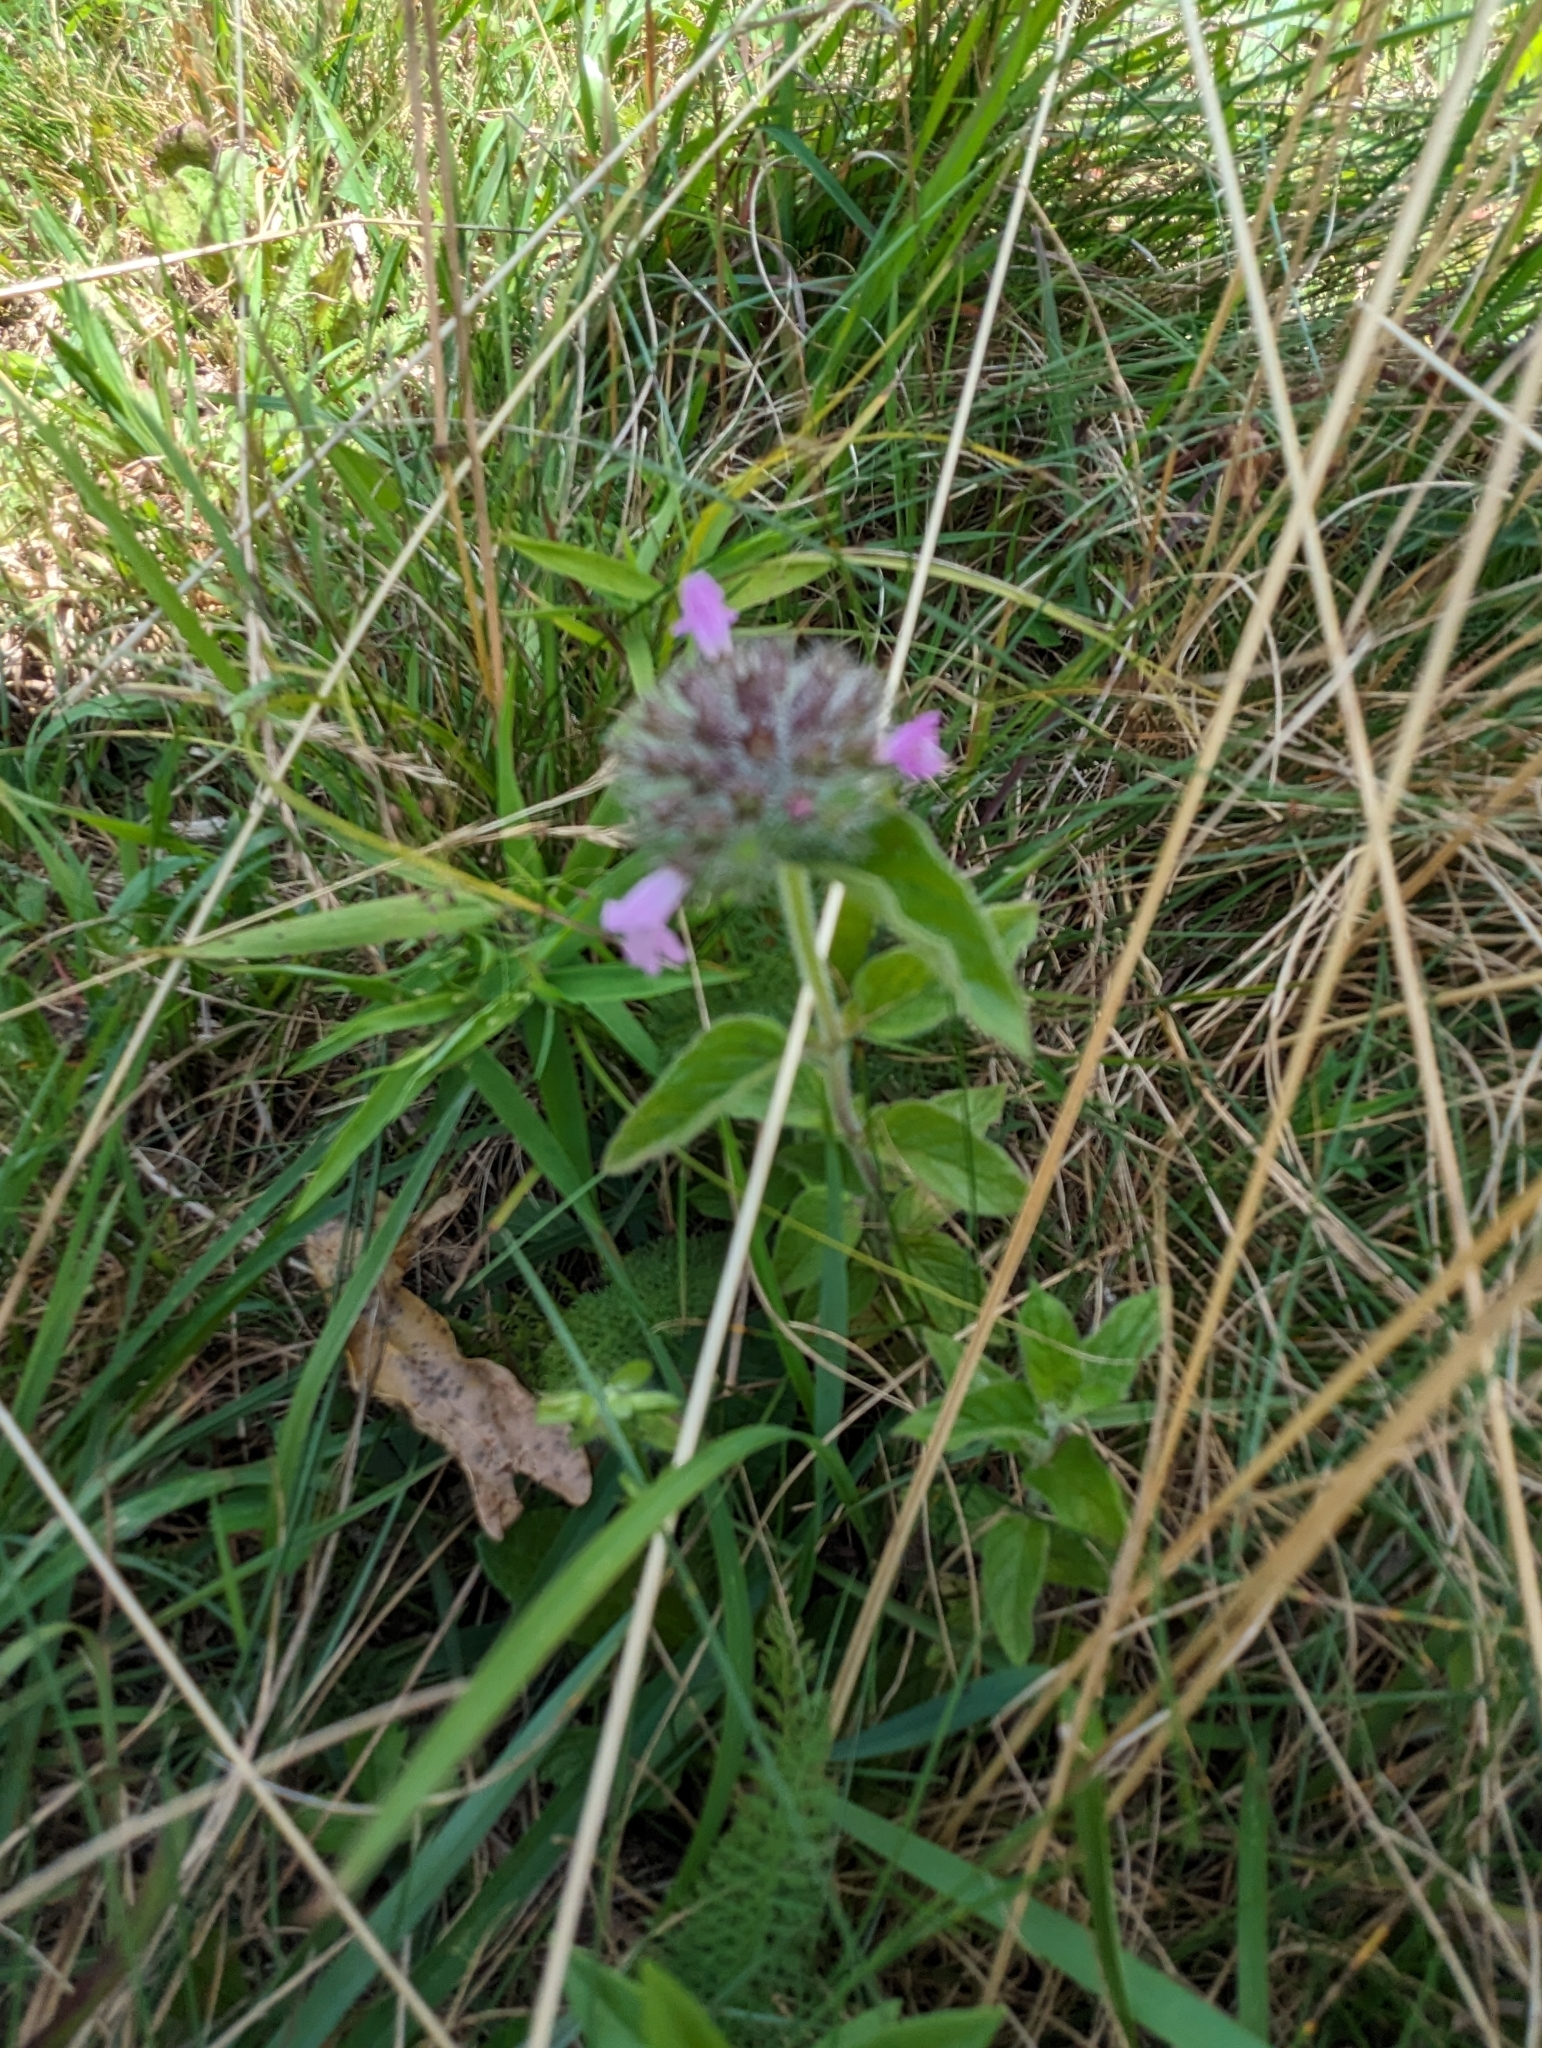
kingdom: Plantae
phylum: Tracheophyta
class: Magnoliopsida
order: Lamiales
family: Lamiaceae
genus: Clinopodium
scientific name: Clinopodium vulgare
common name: Wild basil
